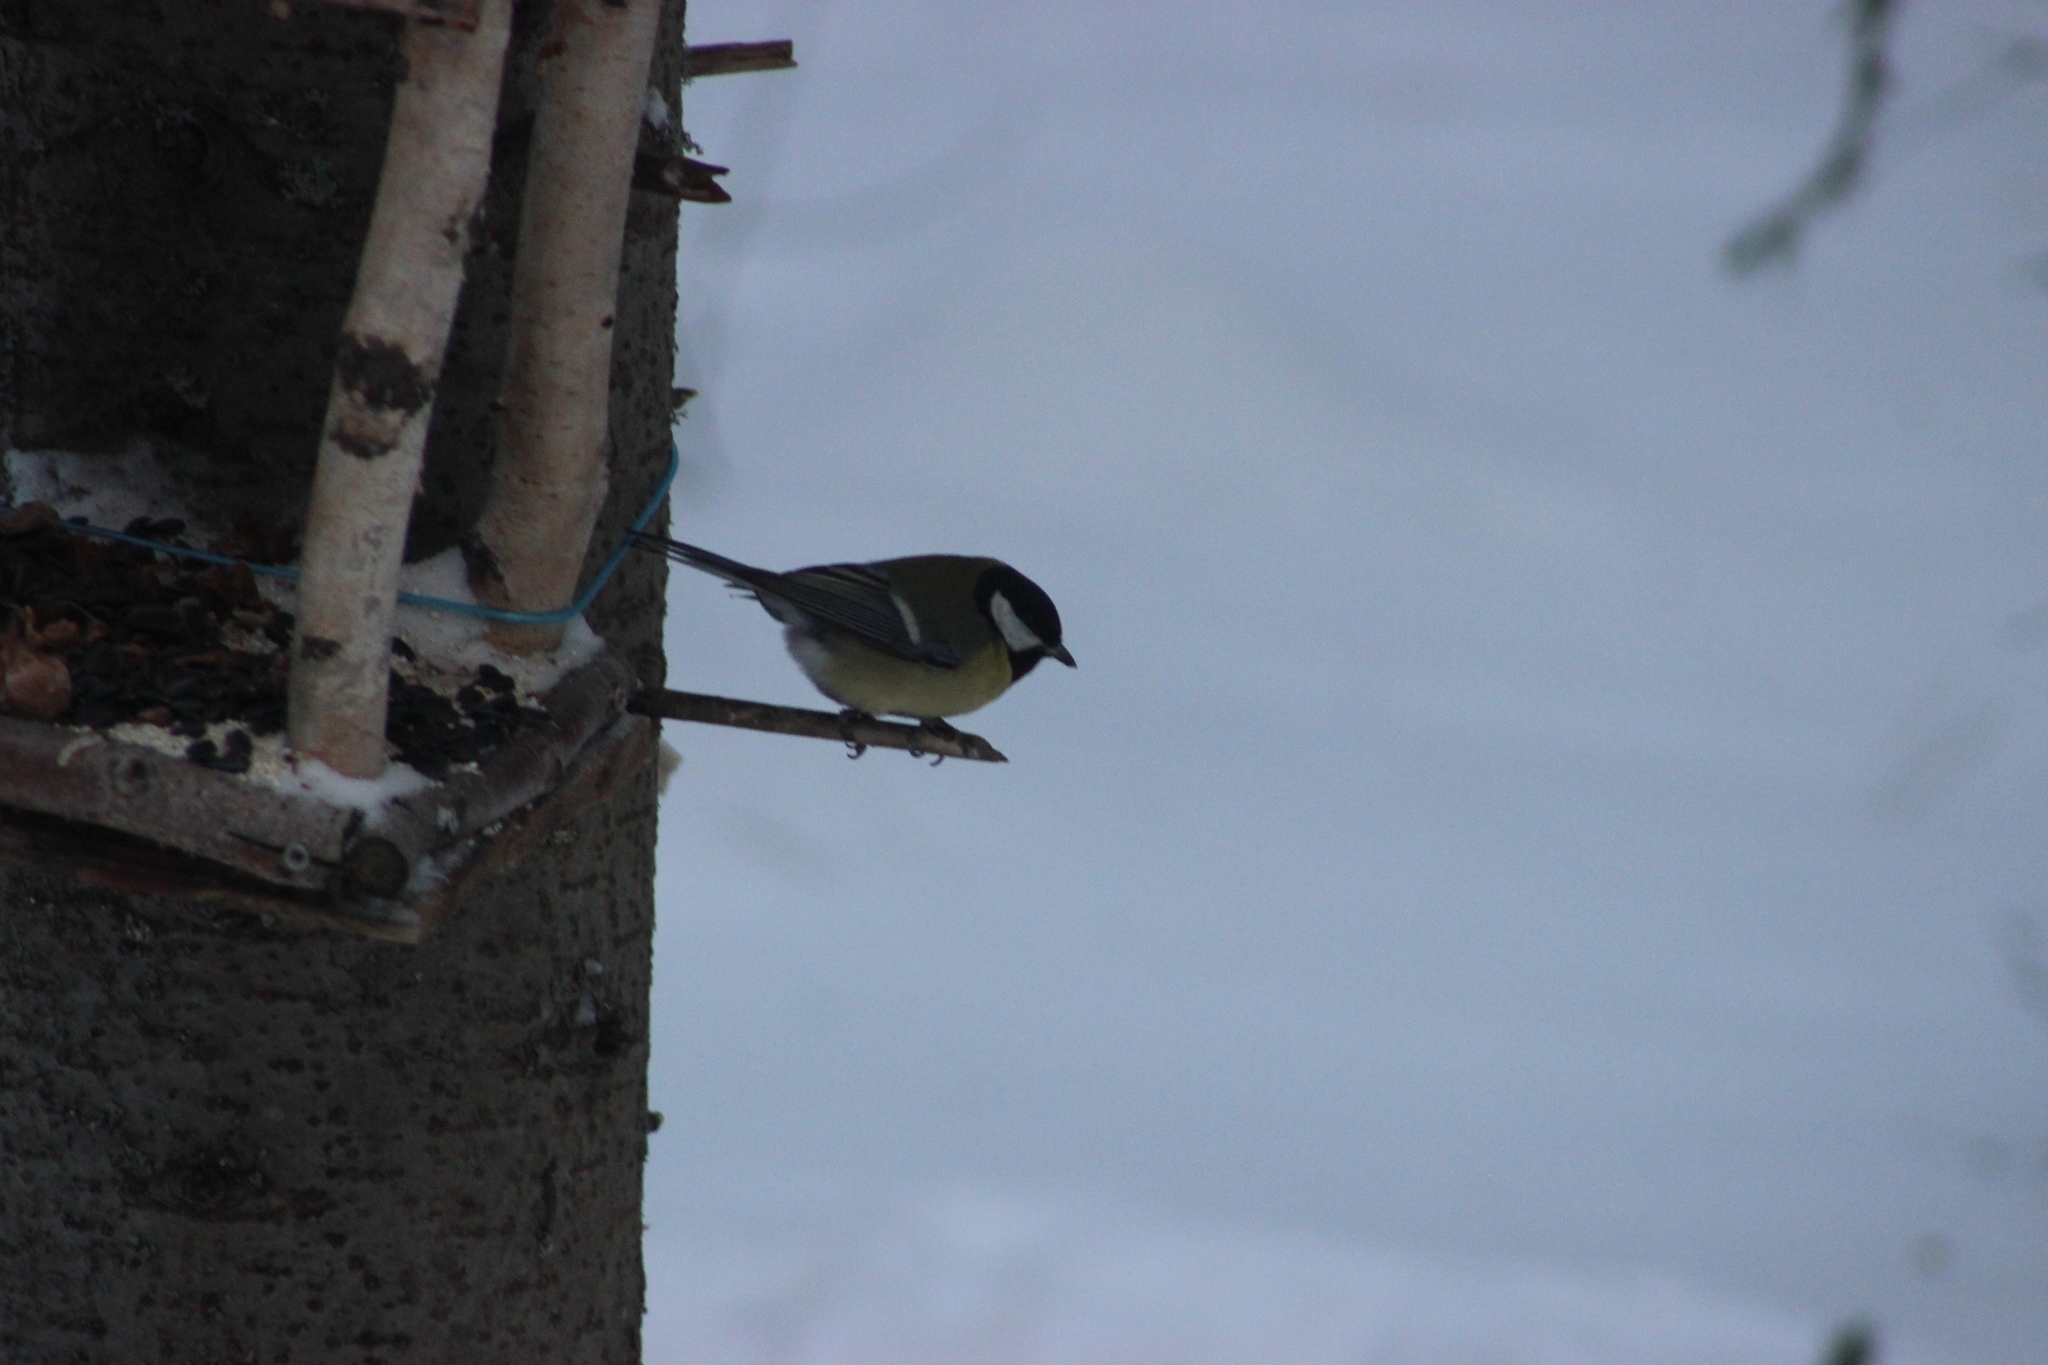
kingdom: Animalia
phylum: Chordata
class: Aves
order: Passeriformes
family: Paridae
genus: Parus
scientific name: Parus major
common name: Great tit
